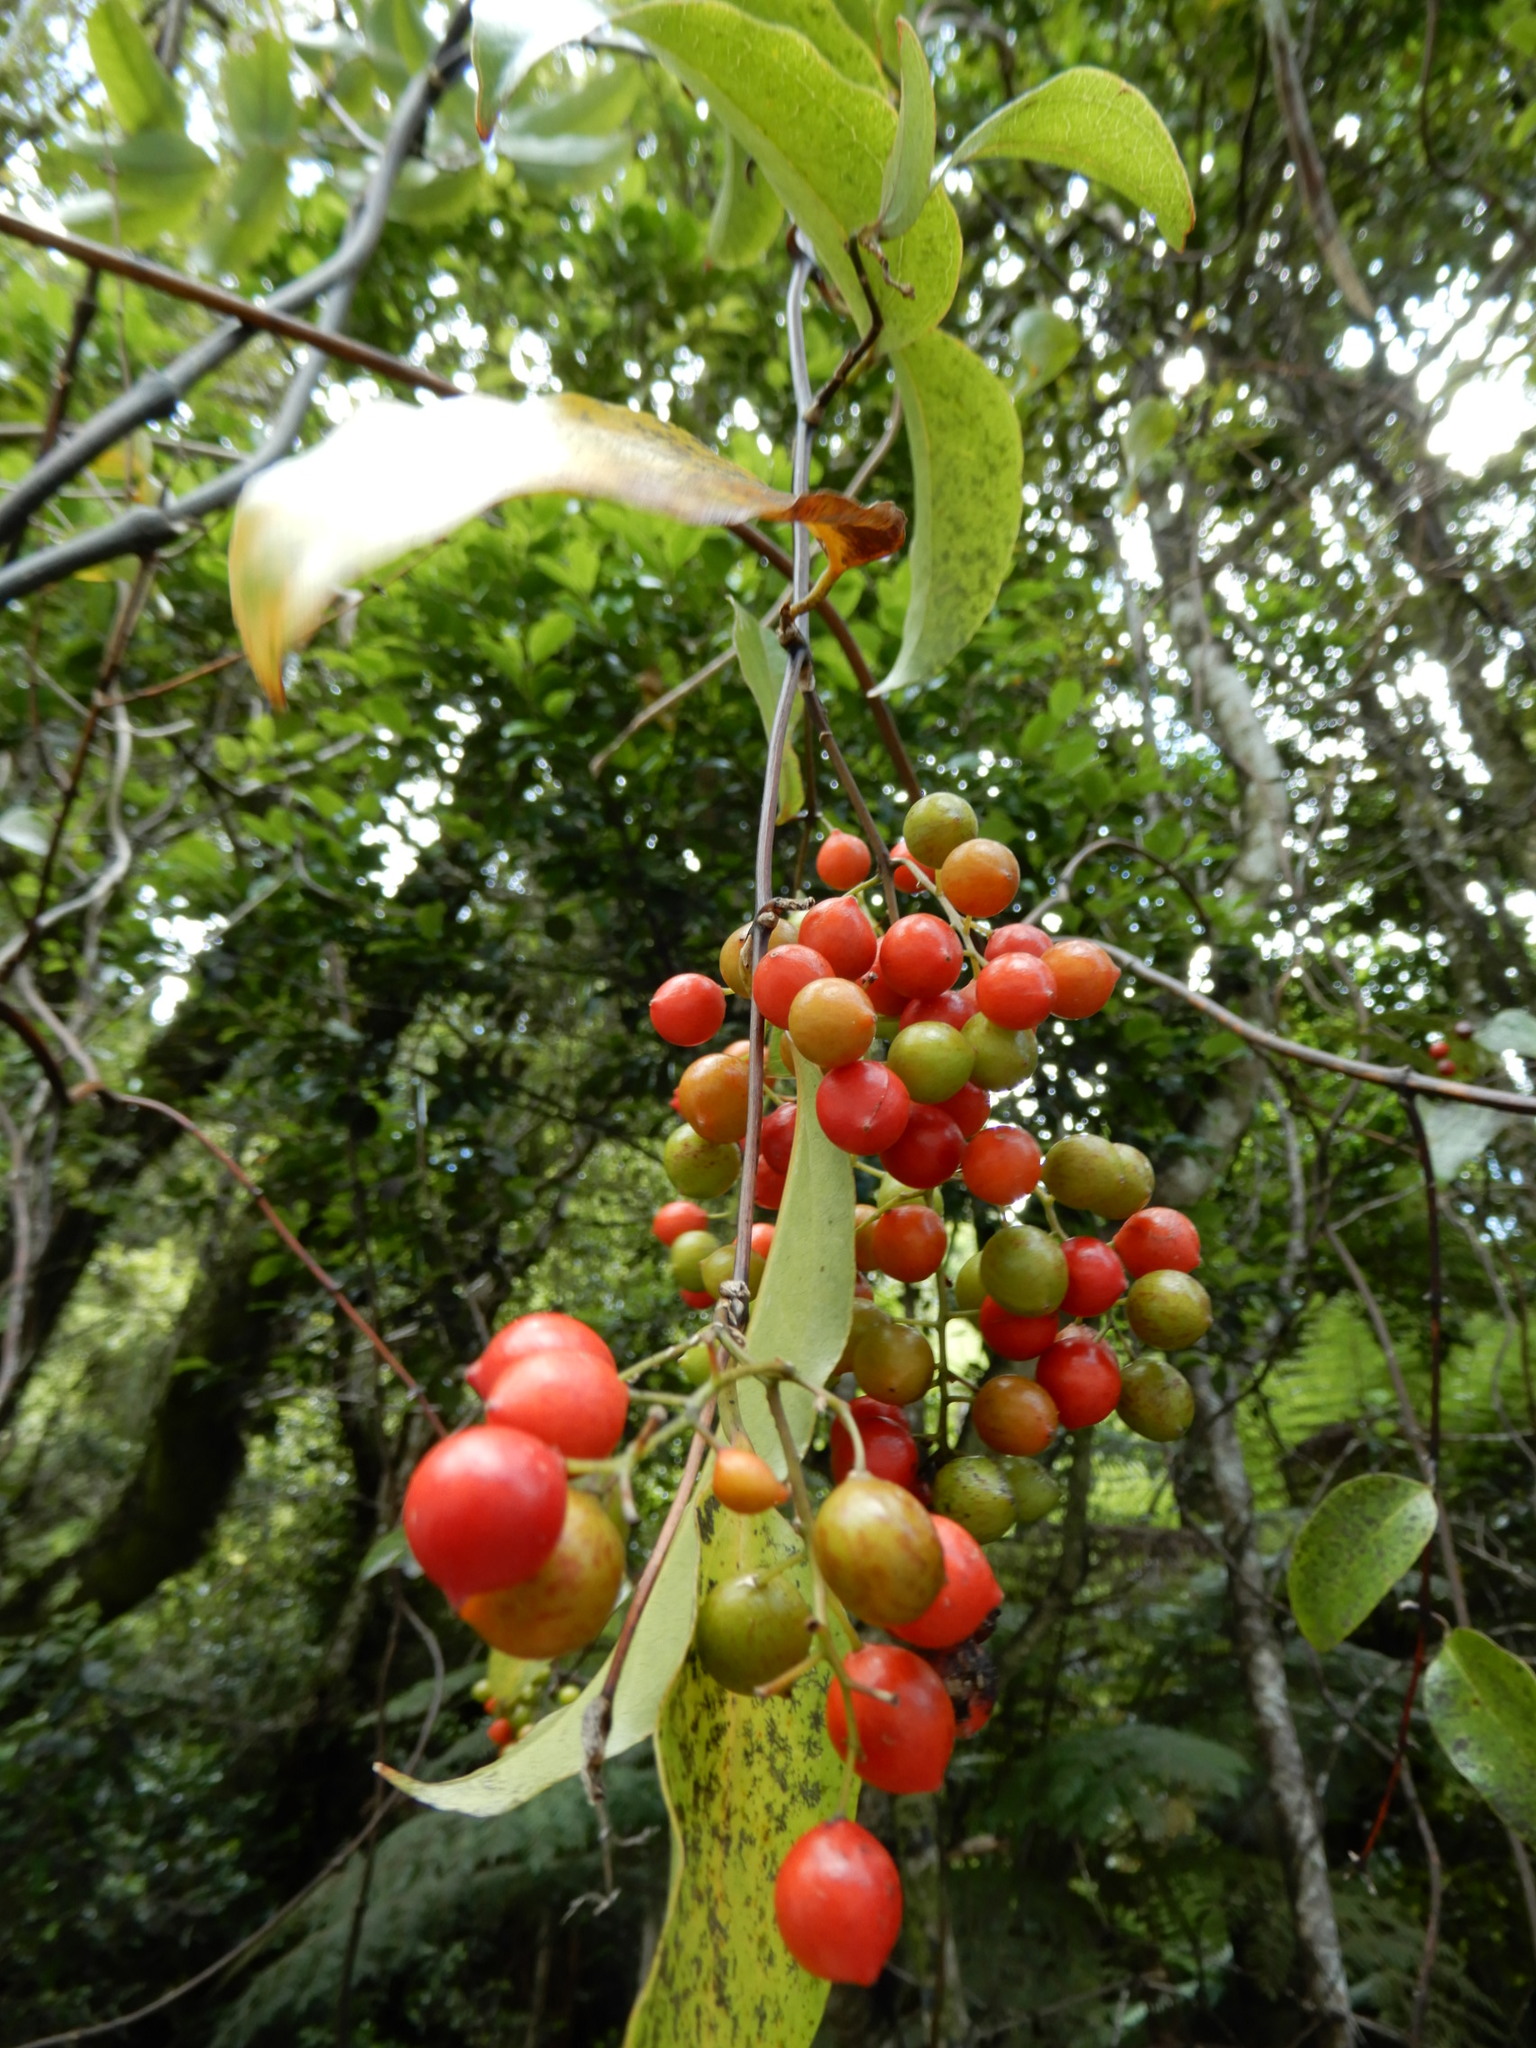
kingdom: Plantae
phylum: Tracheophyta
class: Liliopsida
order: Liliales
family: Ripogonaceae
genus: Ripogonum
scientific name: Ripogonum scandens
